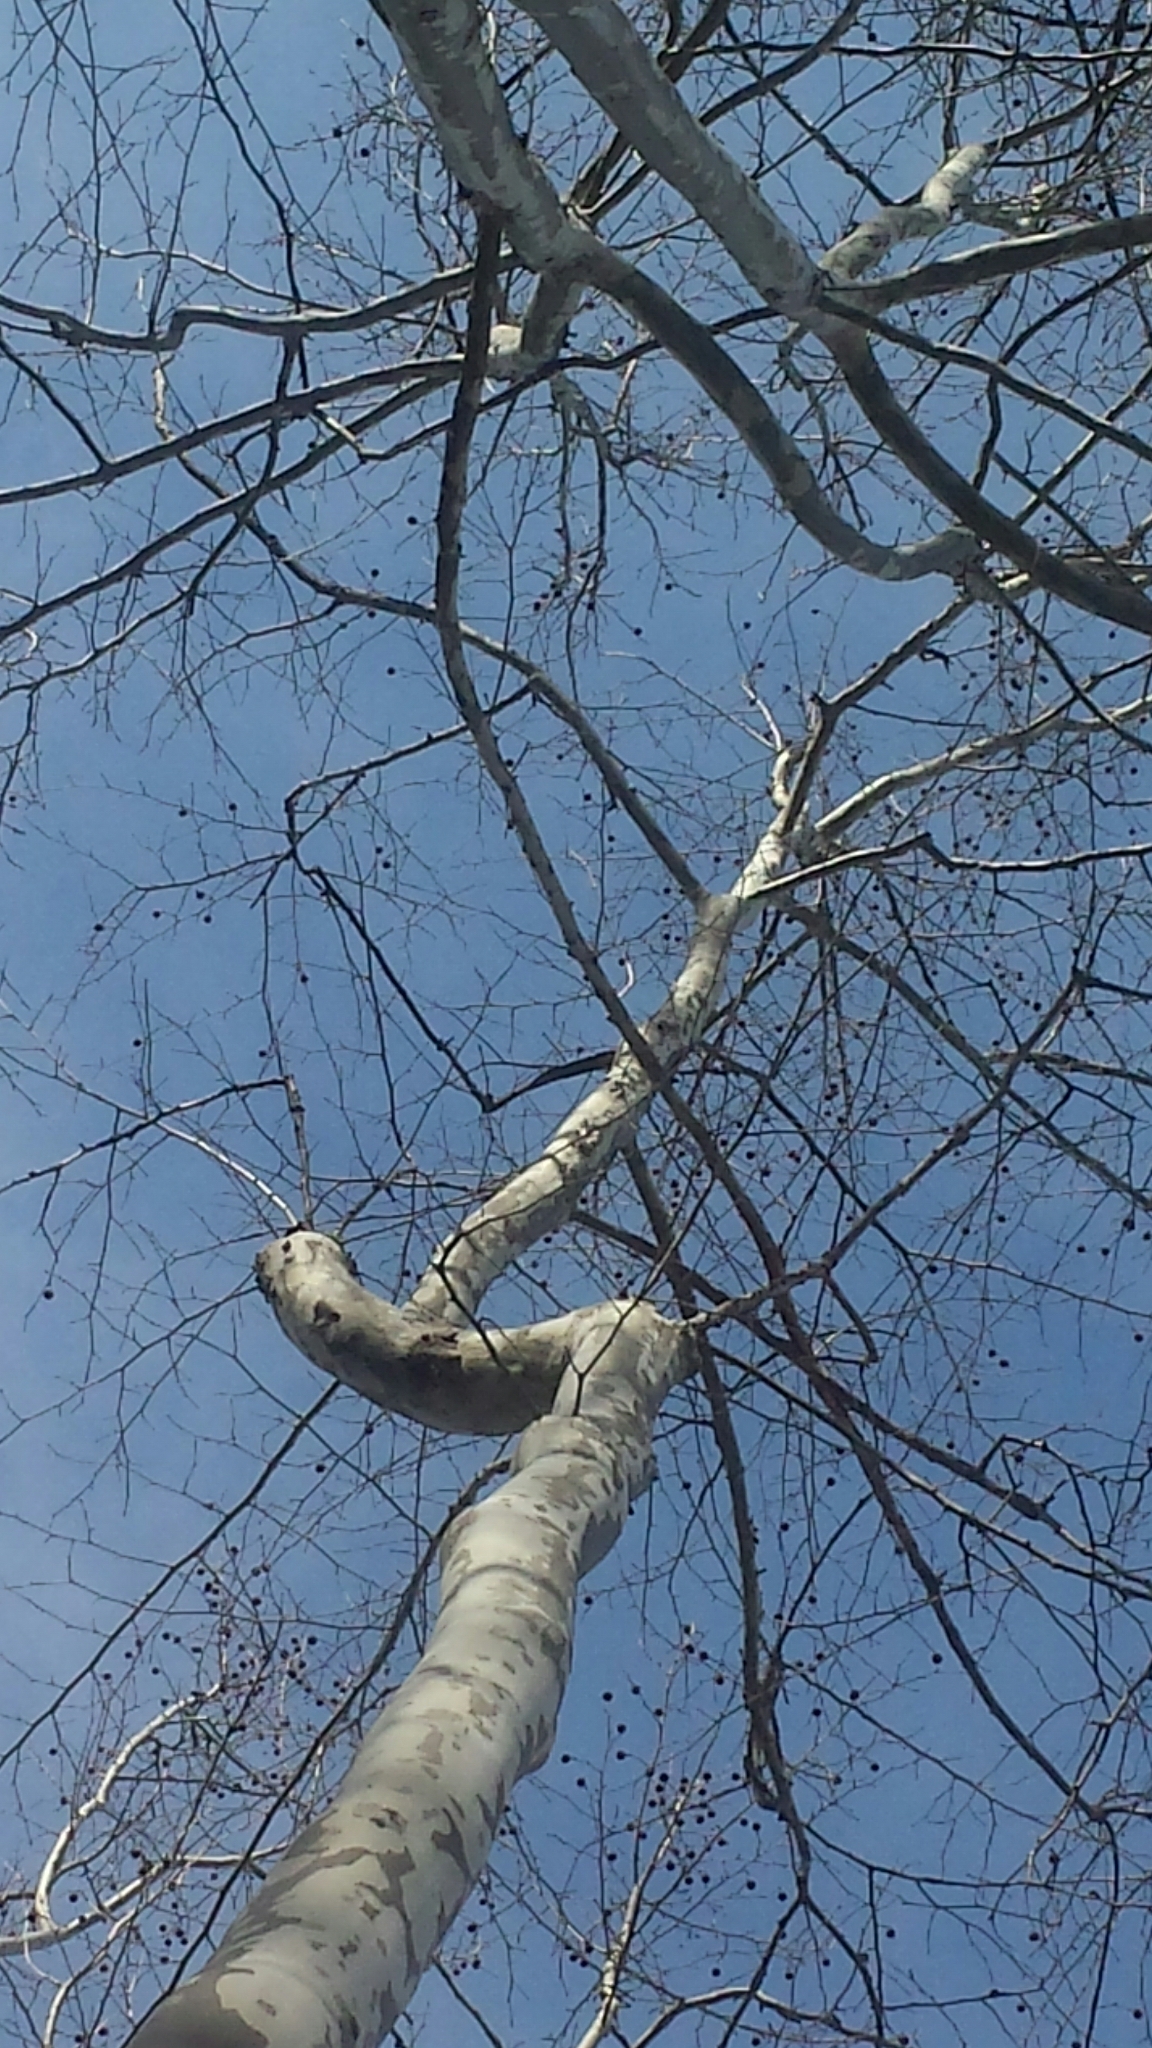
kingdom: Plantae
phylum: Tracheophyta
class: Magnoliopsida
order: Proteales
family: Platanaceae
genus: Platanus
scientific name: Platanus occidentalis
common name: American sycamore
